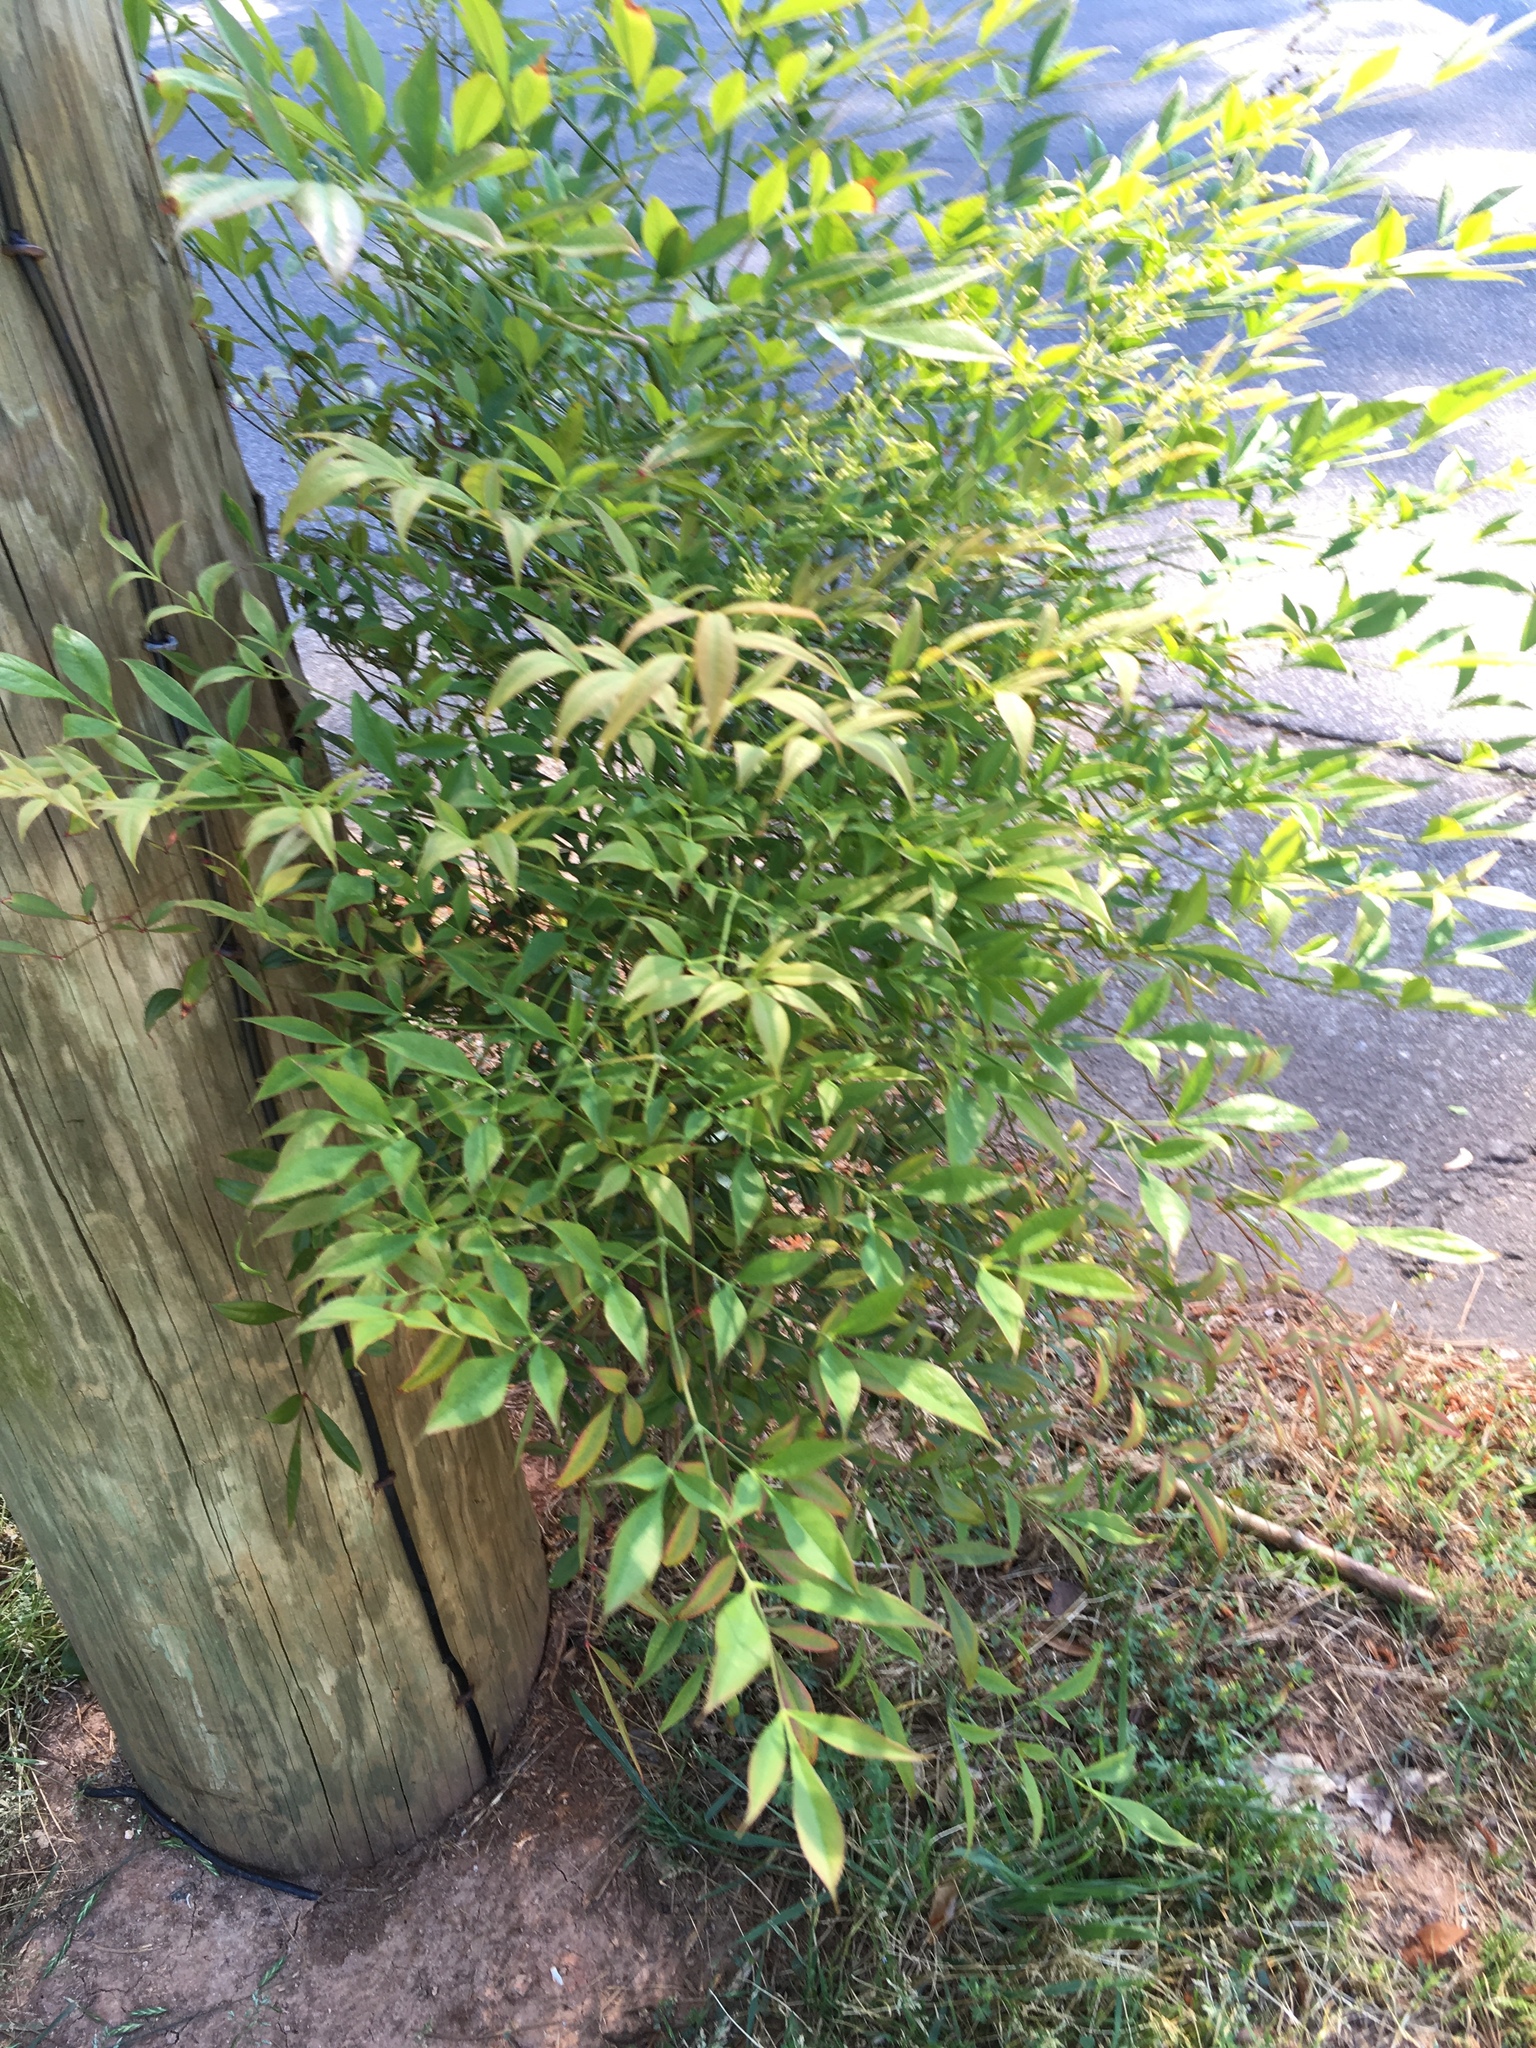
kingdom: Plantae
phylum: Tracheophyta
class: Magnoliopsida
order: Ranunculales
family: Berberidaceae
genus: Nandina
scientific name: Nandina domestica
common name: Sacred bamboo
